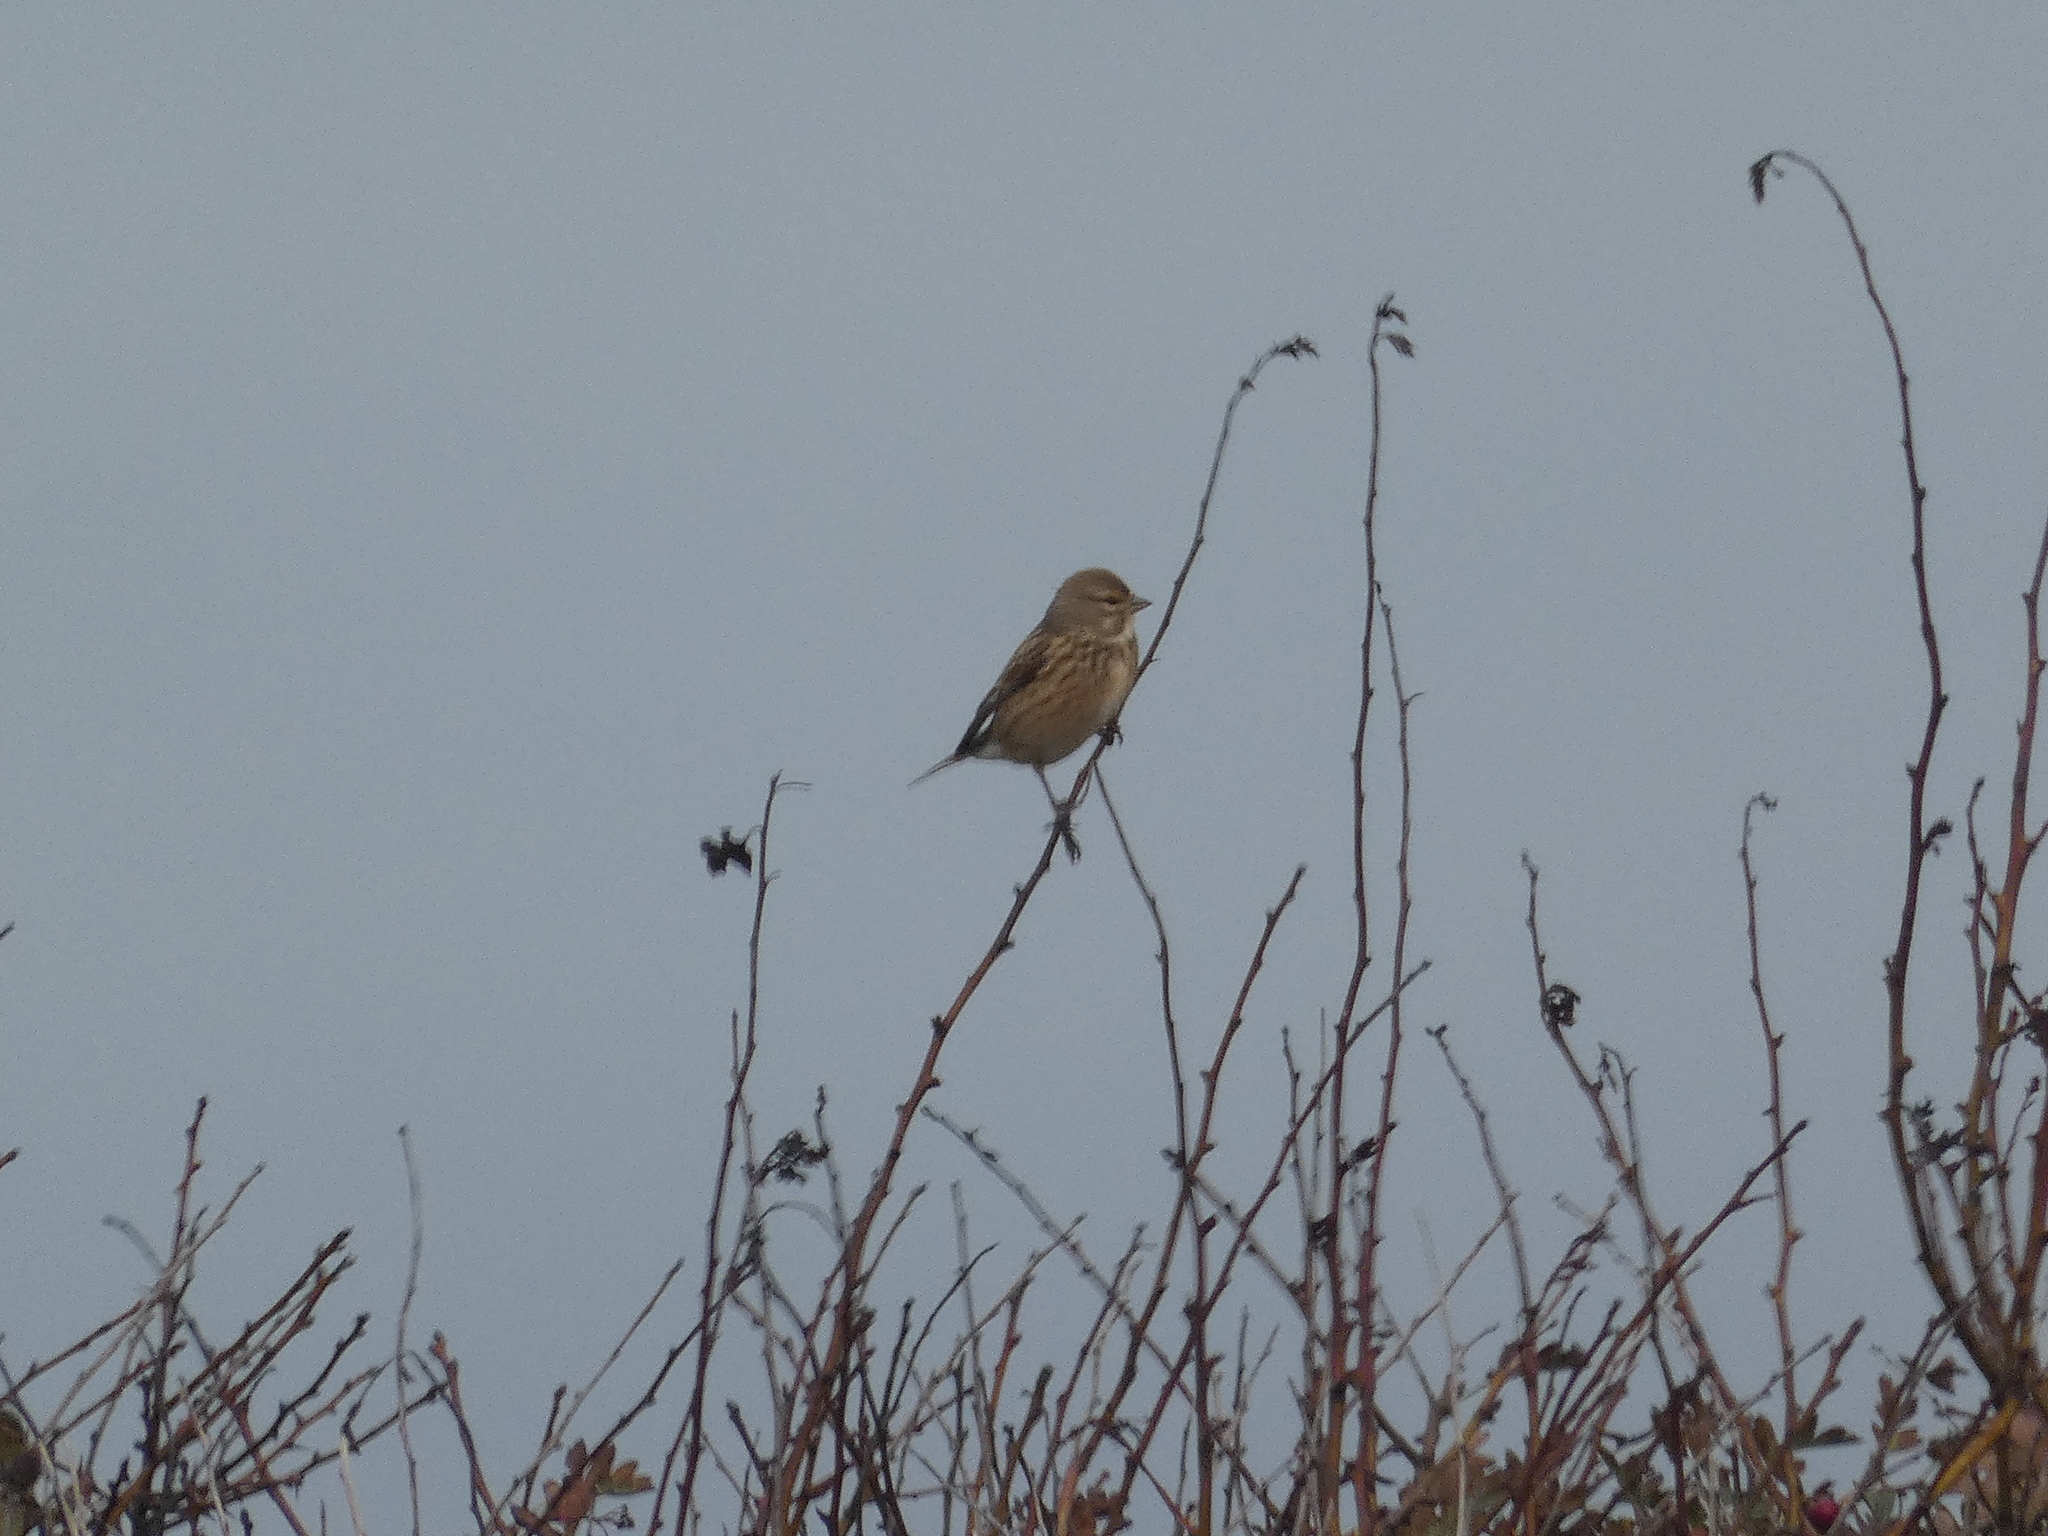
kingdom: Animalia
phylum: Chordata
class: Aves
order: Passeriformes
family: Fringillidae
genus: Linaria
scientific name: Linaria cannabina
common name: Common linnet
